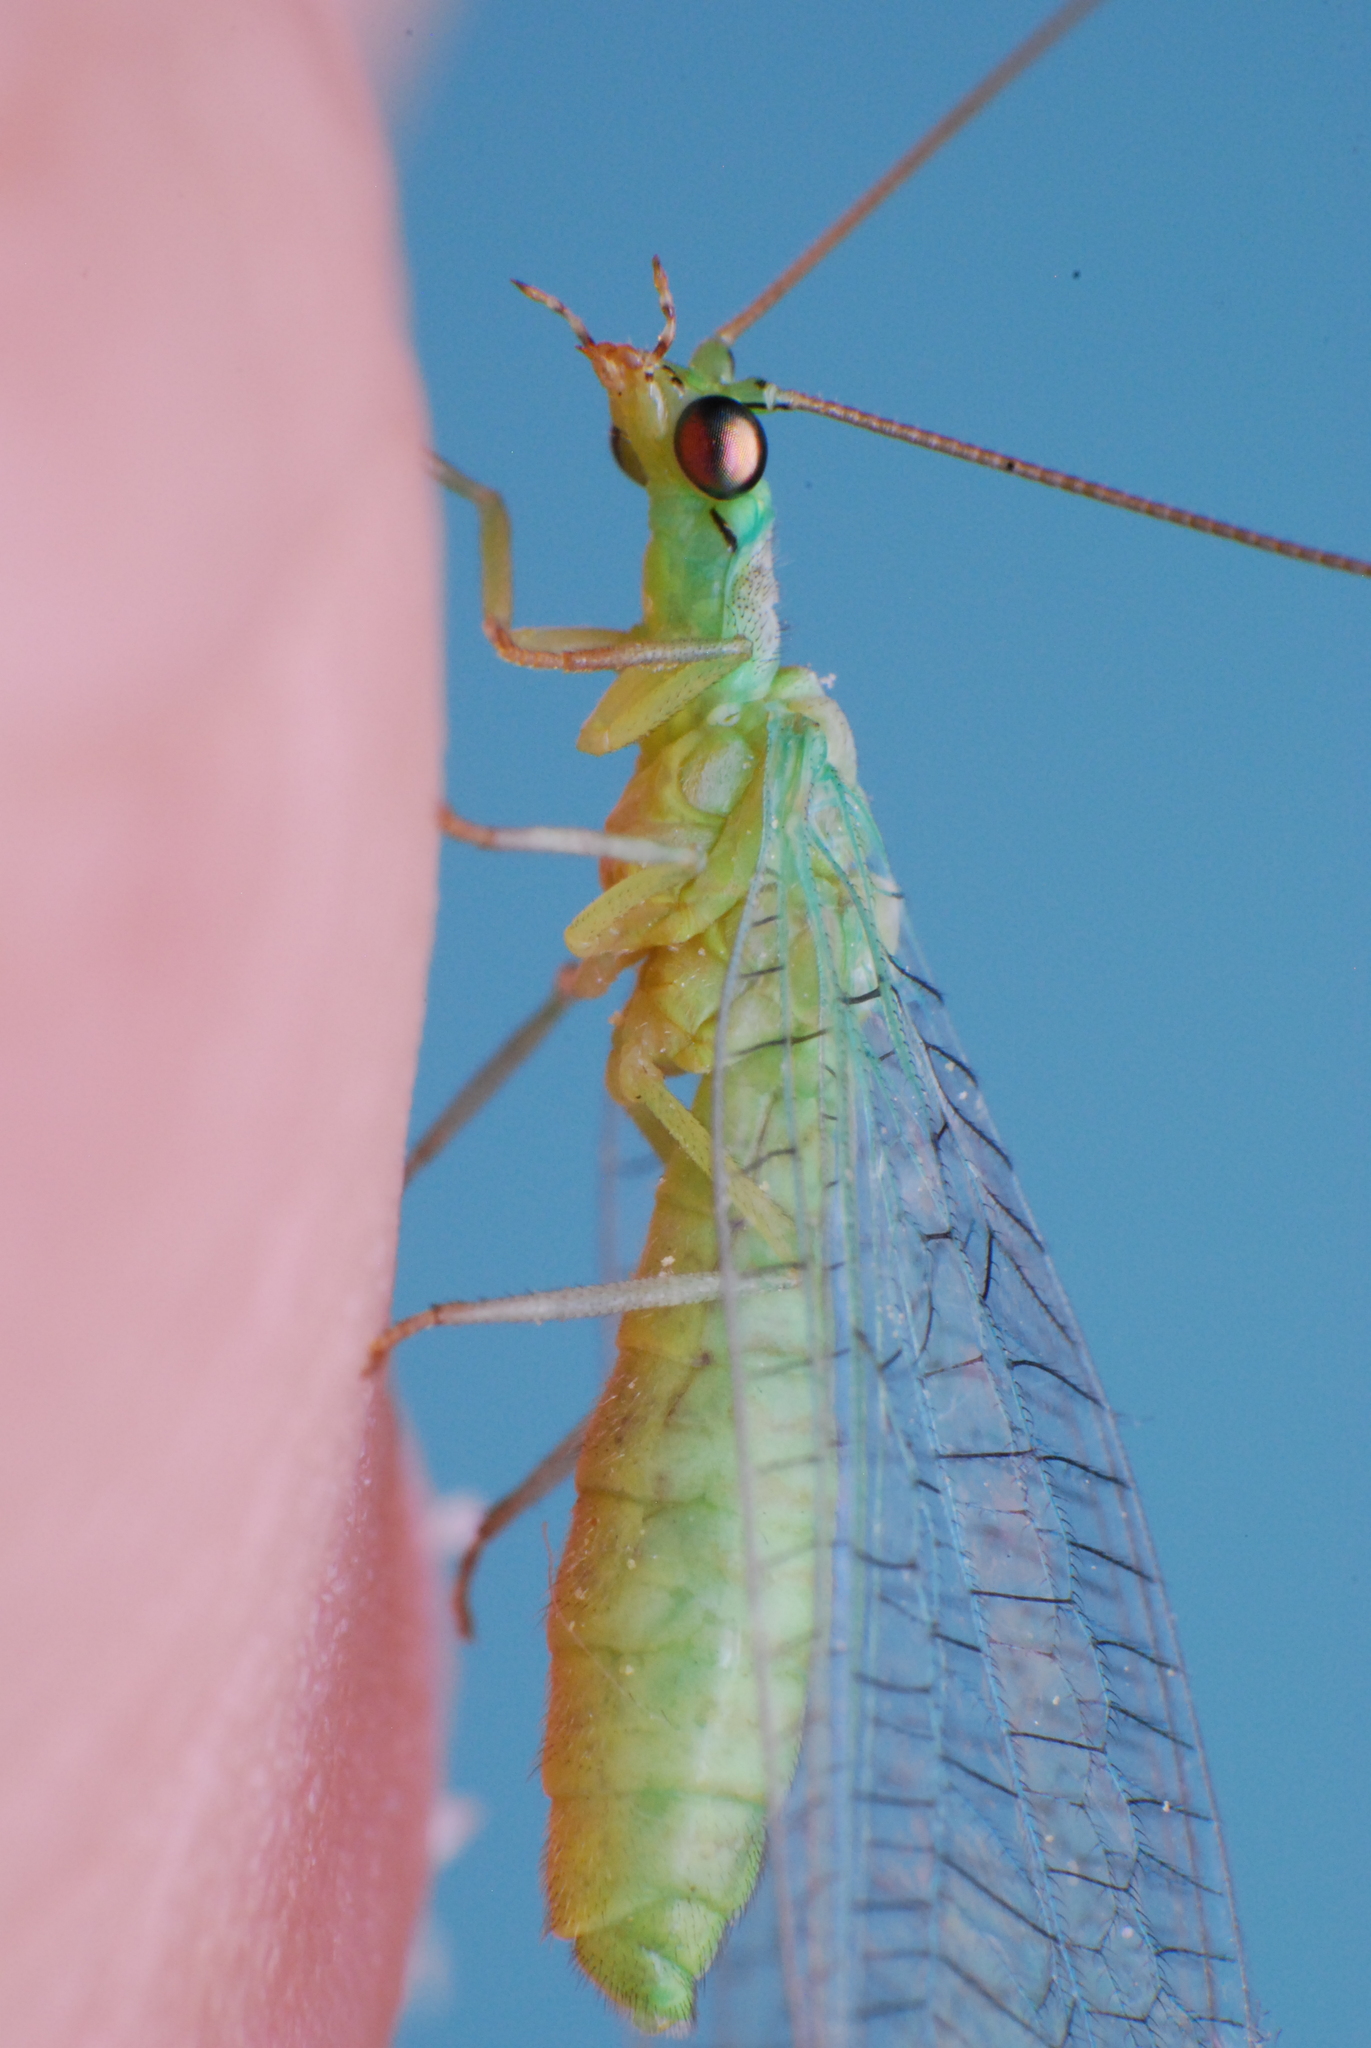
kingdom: Animalia
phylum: Arthropoda
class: Insecta
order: Neuroptera
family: Chrysopidae
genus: Mallada
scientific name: Mallada signatus
